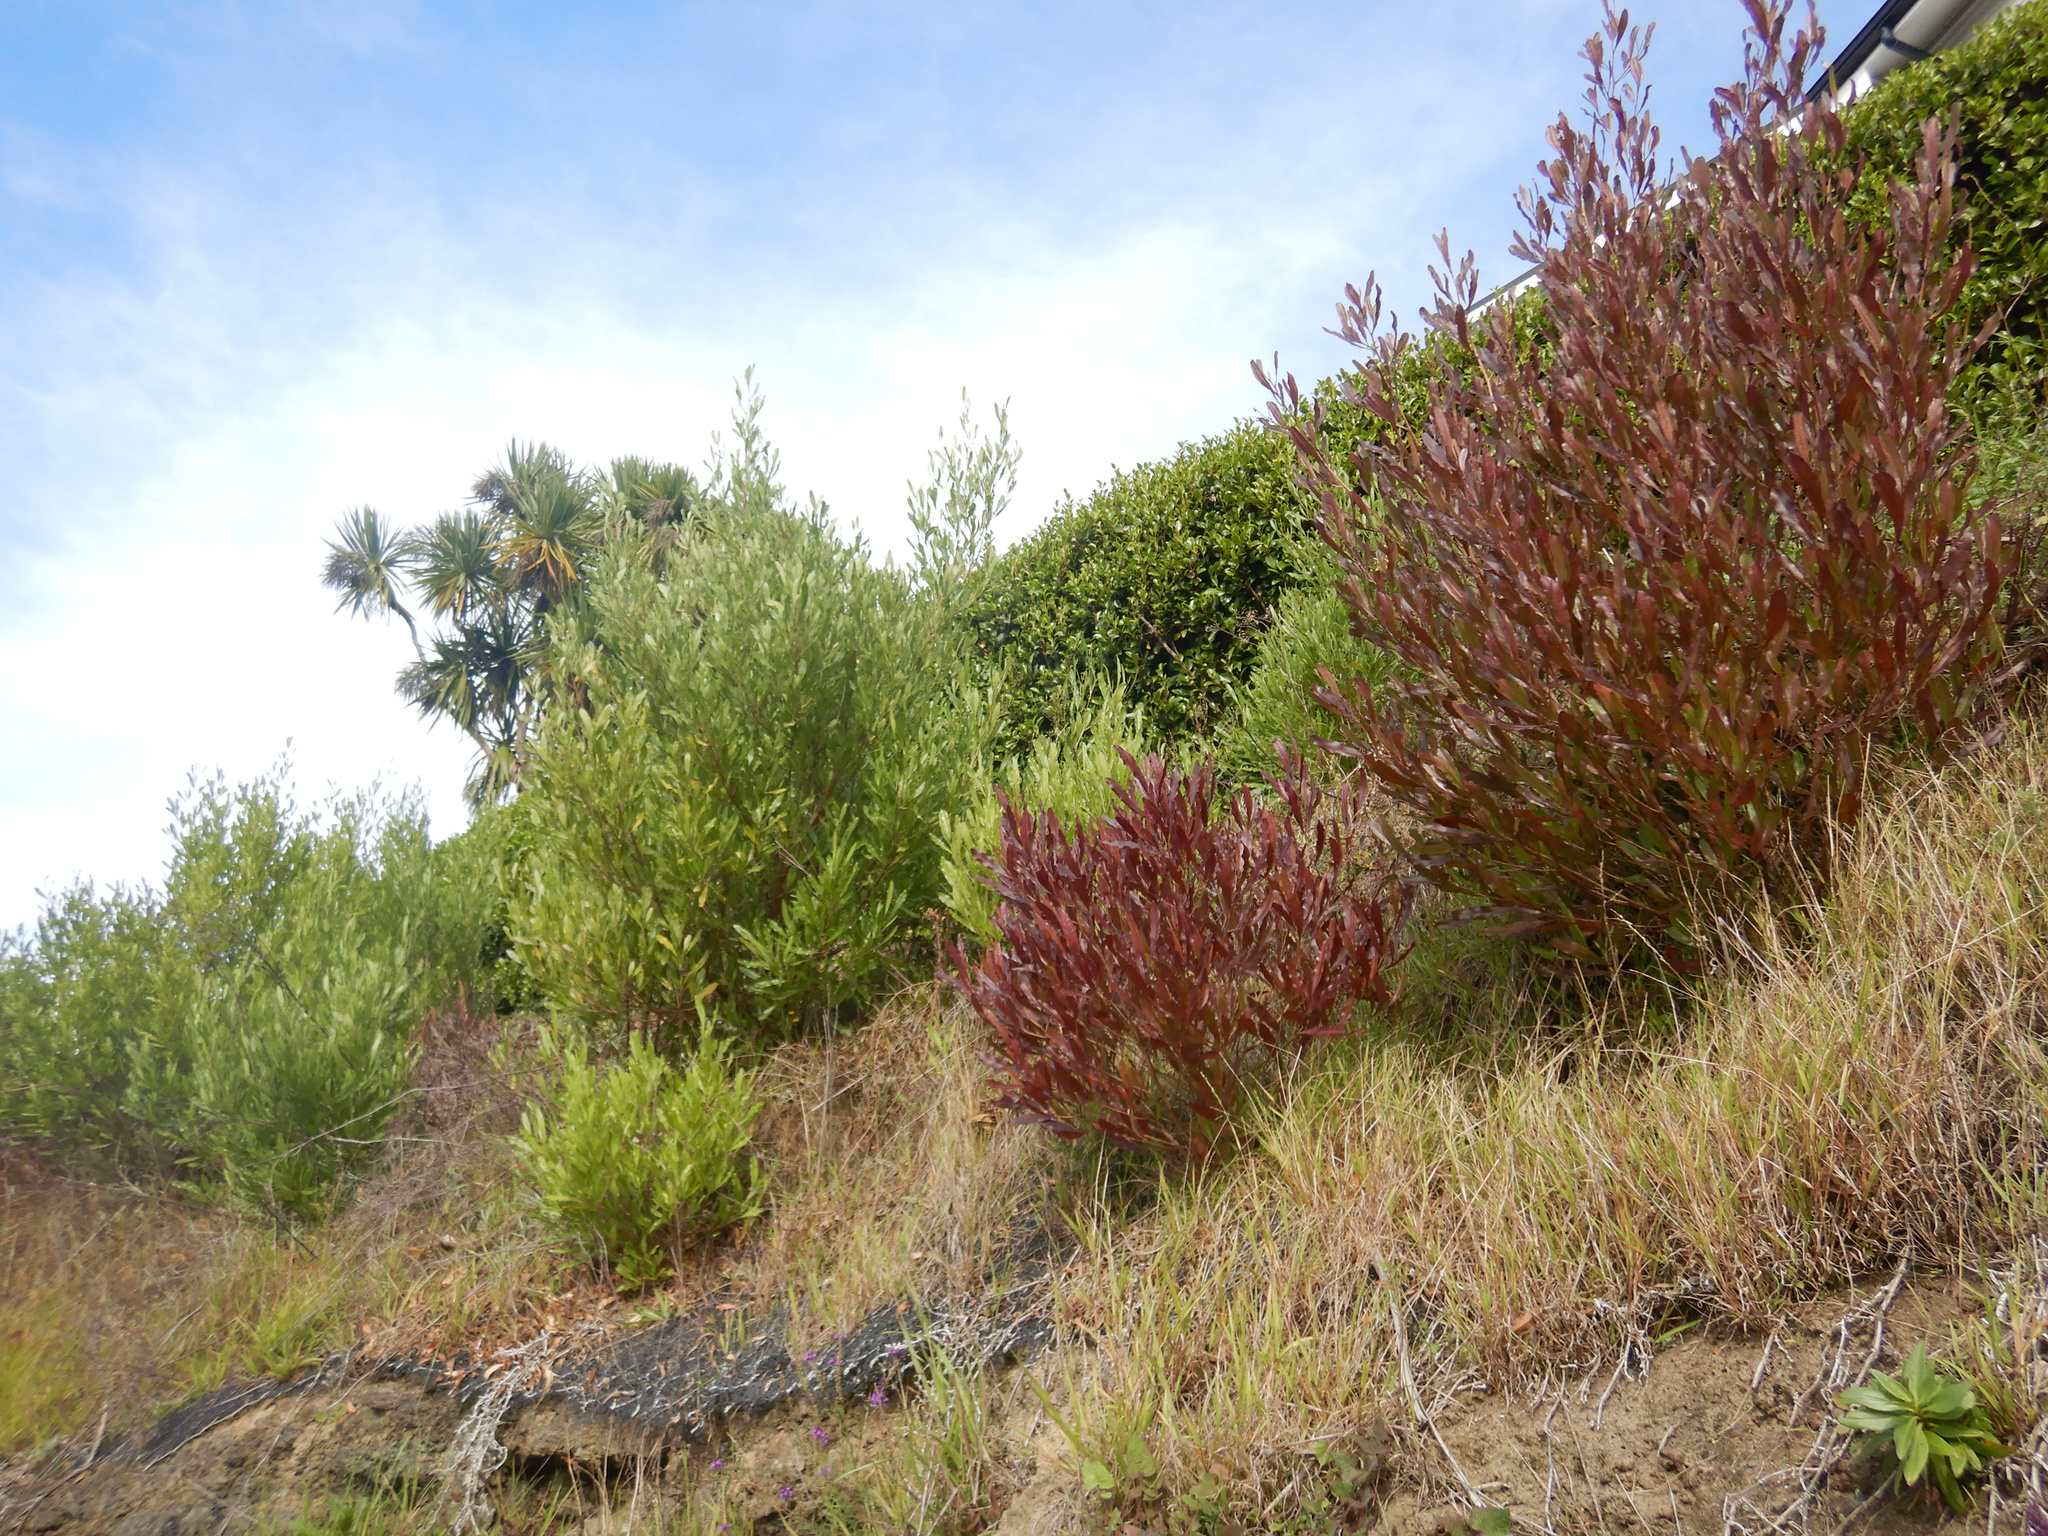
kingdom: Plantae
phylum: Tracheophyta
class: Magnoliopsida
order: Sapindales
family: Sapindaceae
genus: Dodonaea
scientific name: Dodonaea viscosa
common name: Hopbush
